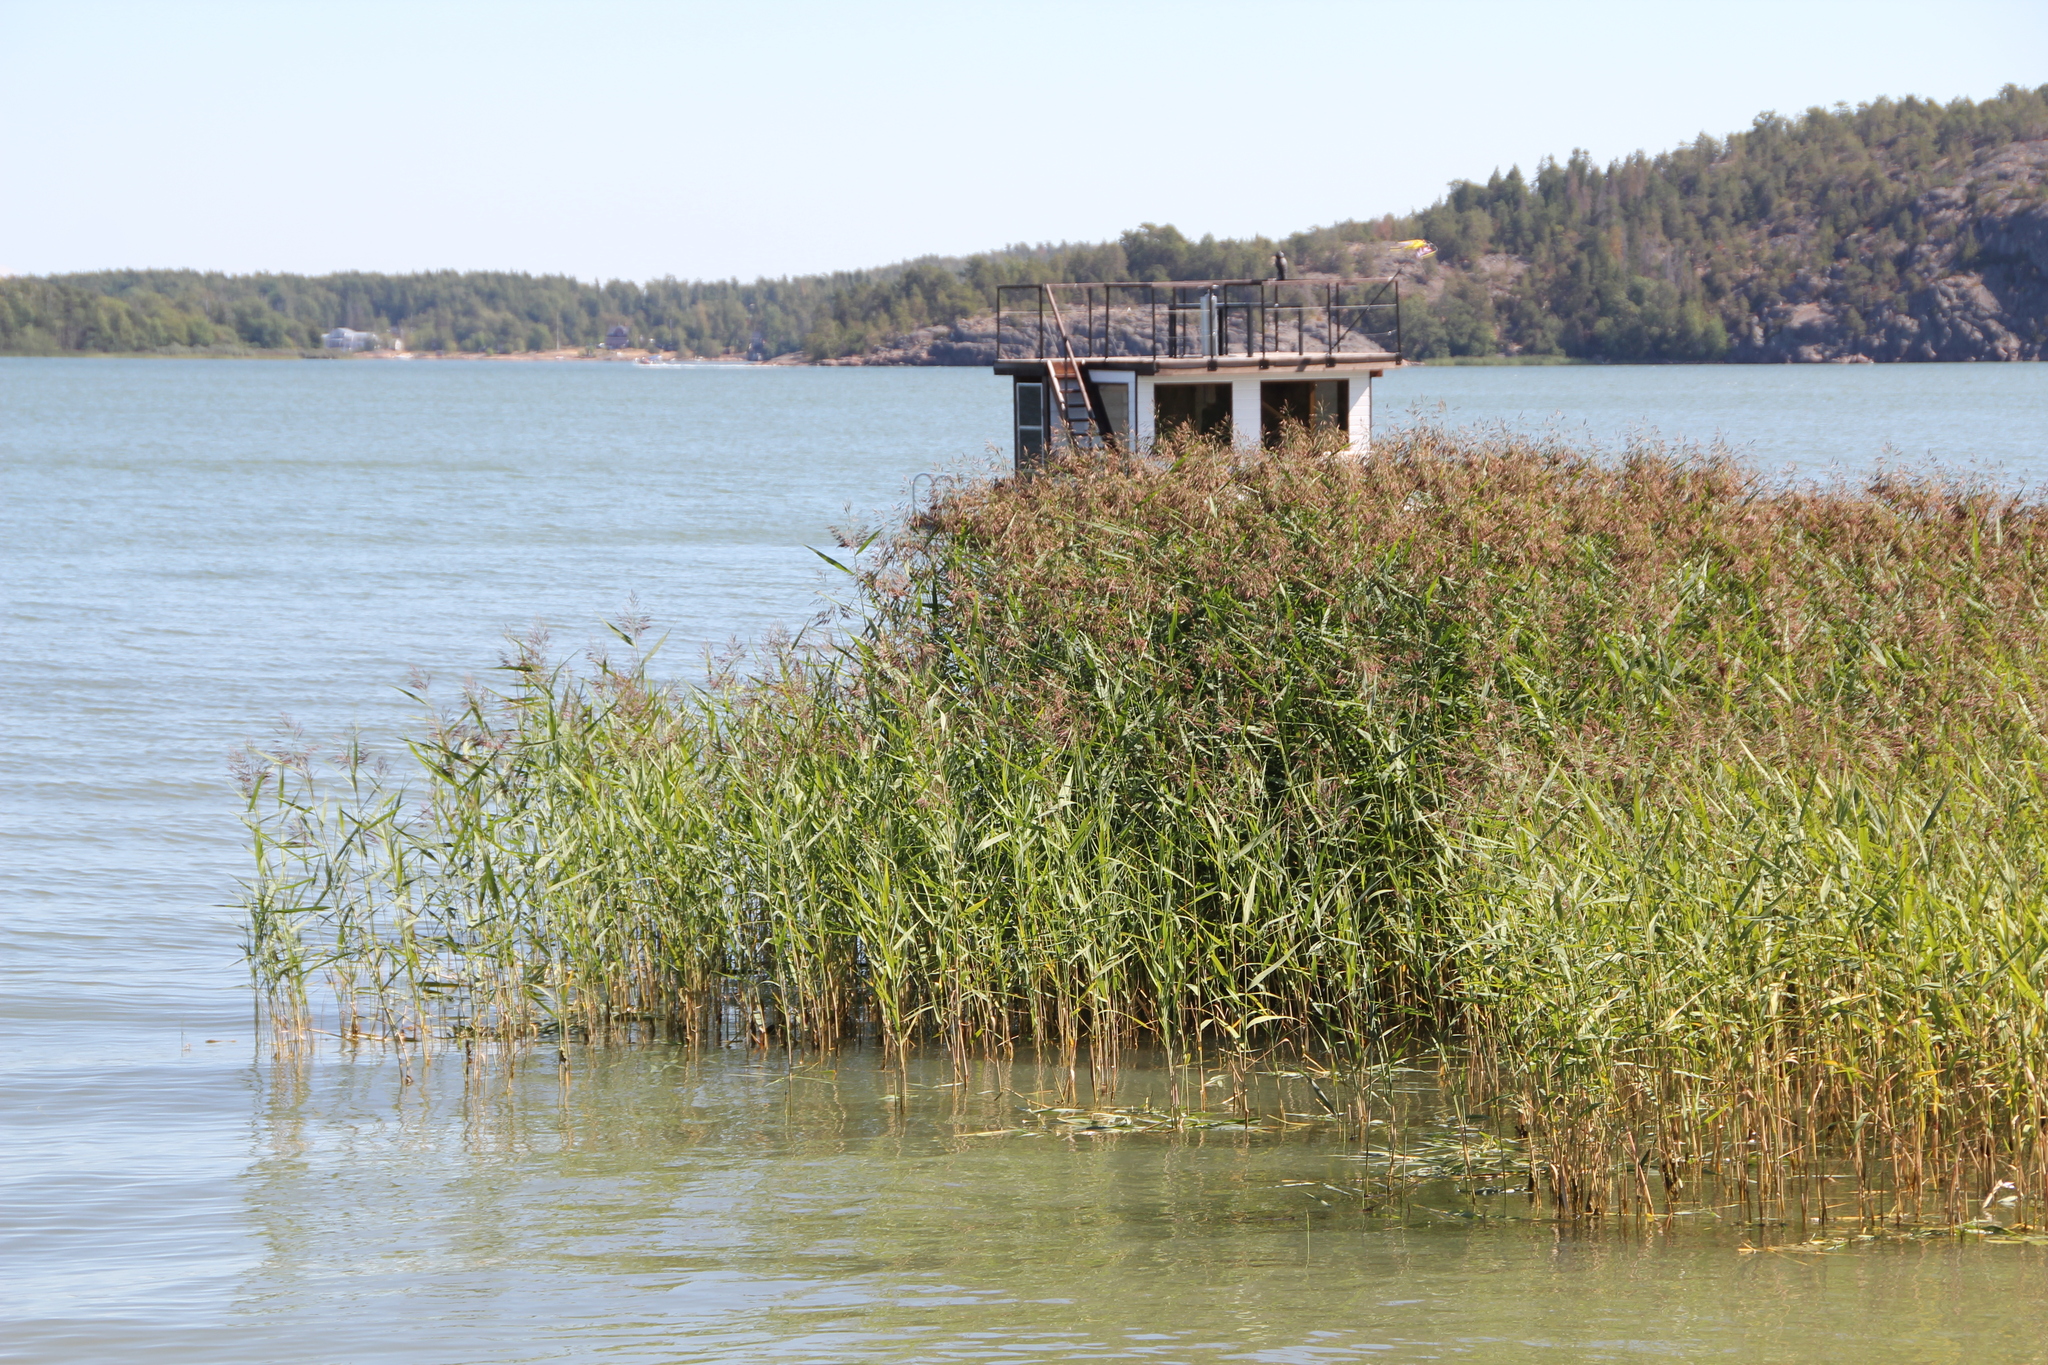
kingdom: Plantae
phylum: Tracheophyta
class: Liliopsida
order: Poales
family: Poaceae
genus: Phragmites
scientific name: Phragmites australis
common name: Common reed
